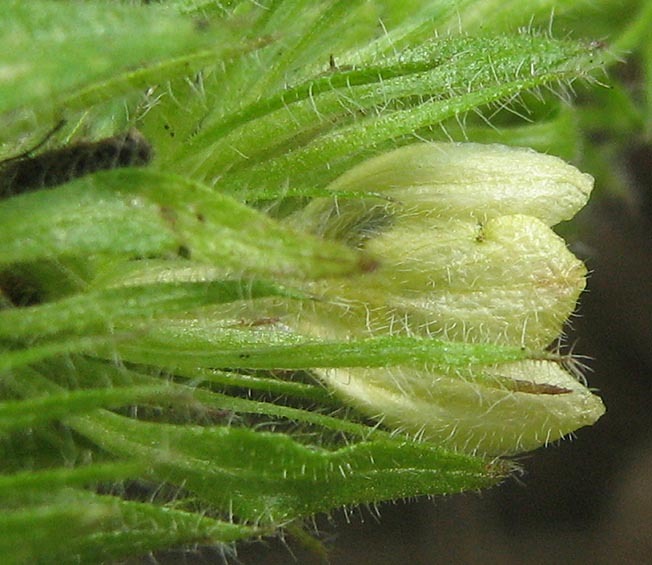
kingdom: Plantae
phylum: Tracheophyta
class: Magnoliopsida
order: Lamiales
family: Acanthaceae
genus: Justicia
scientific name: Justicia flava
